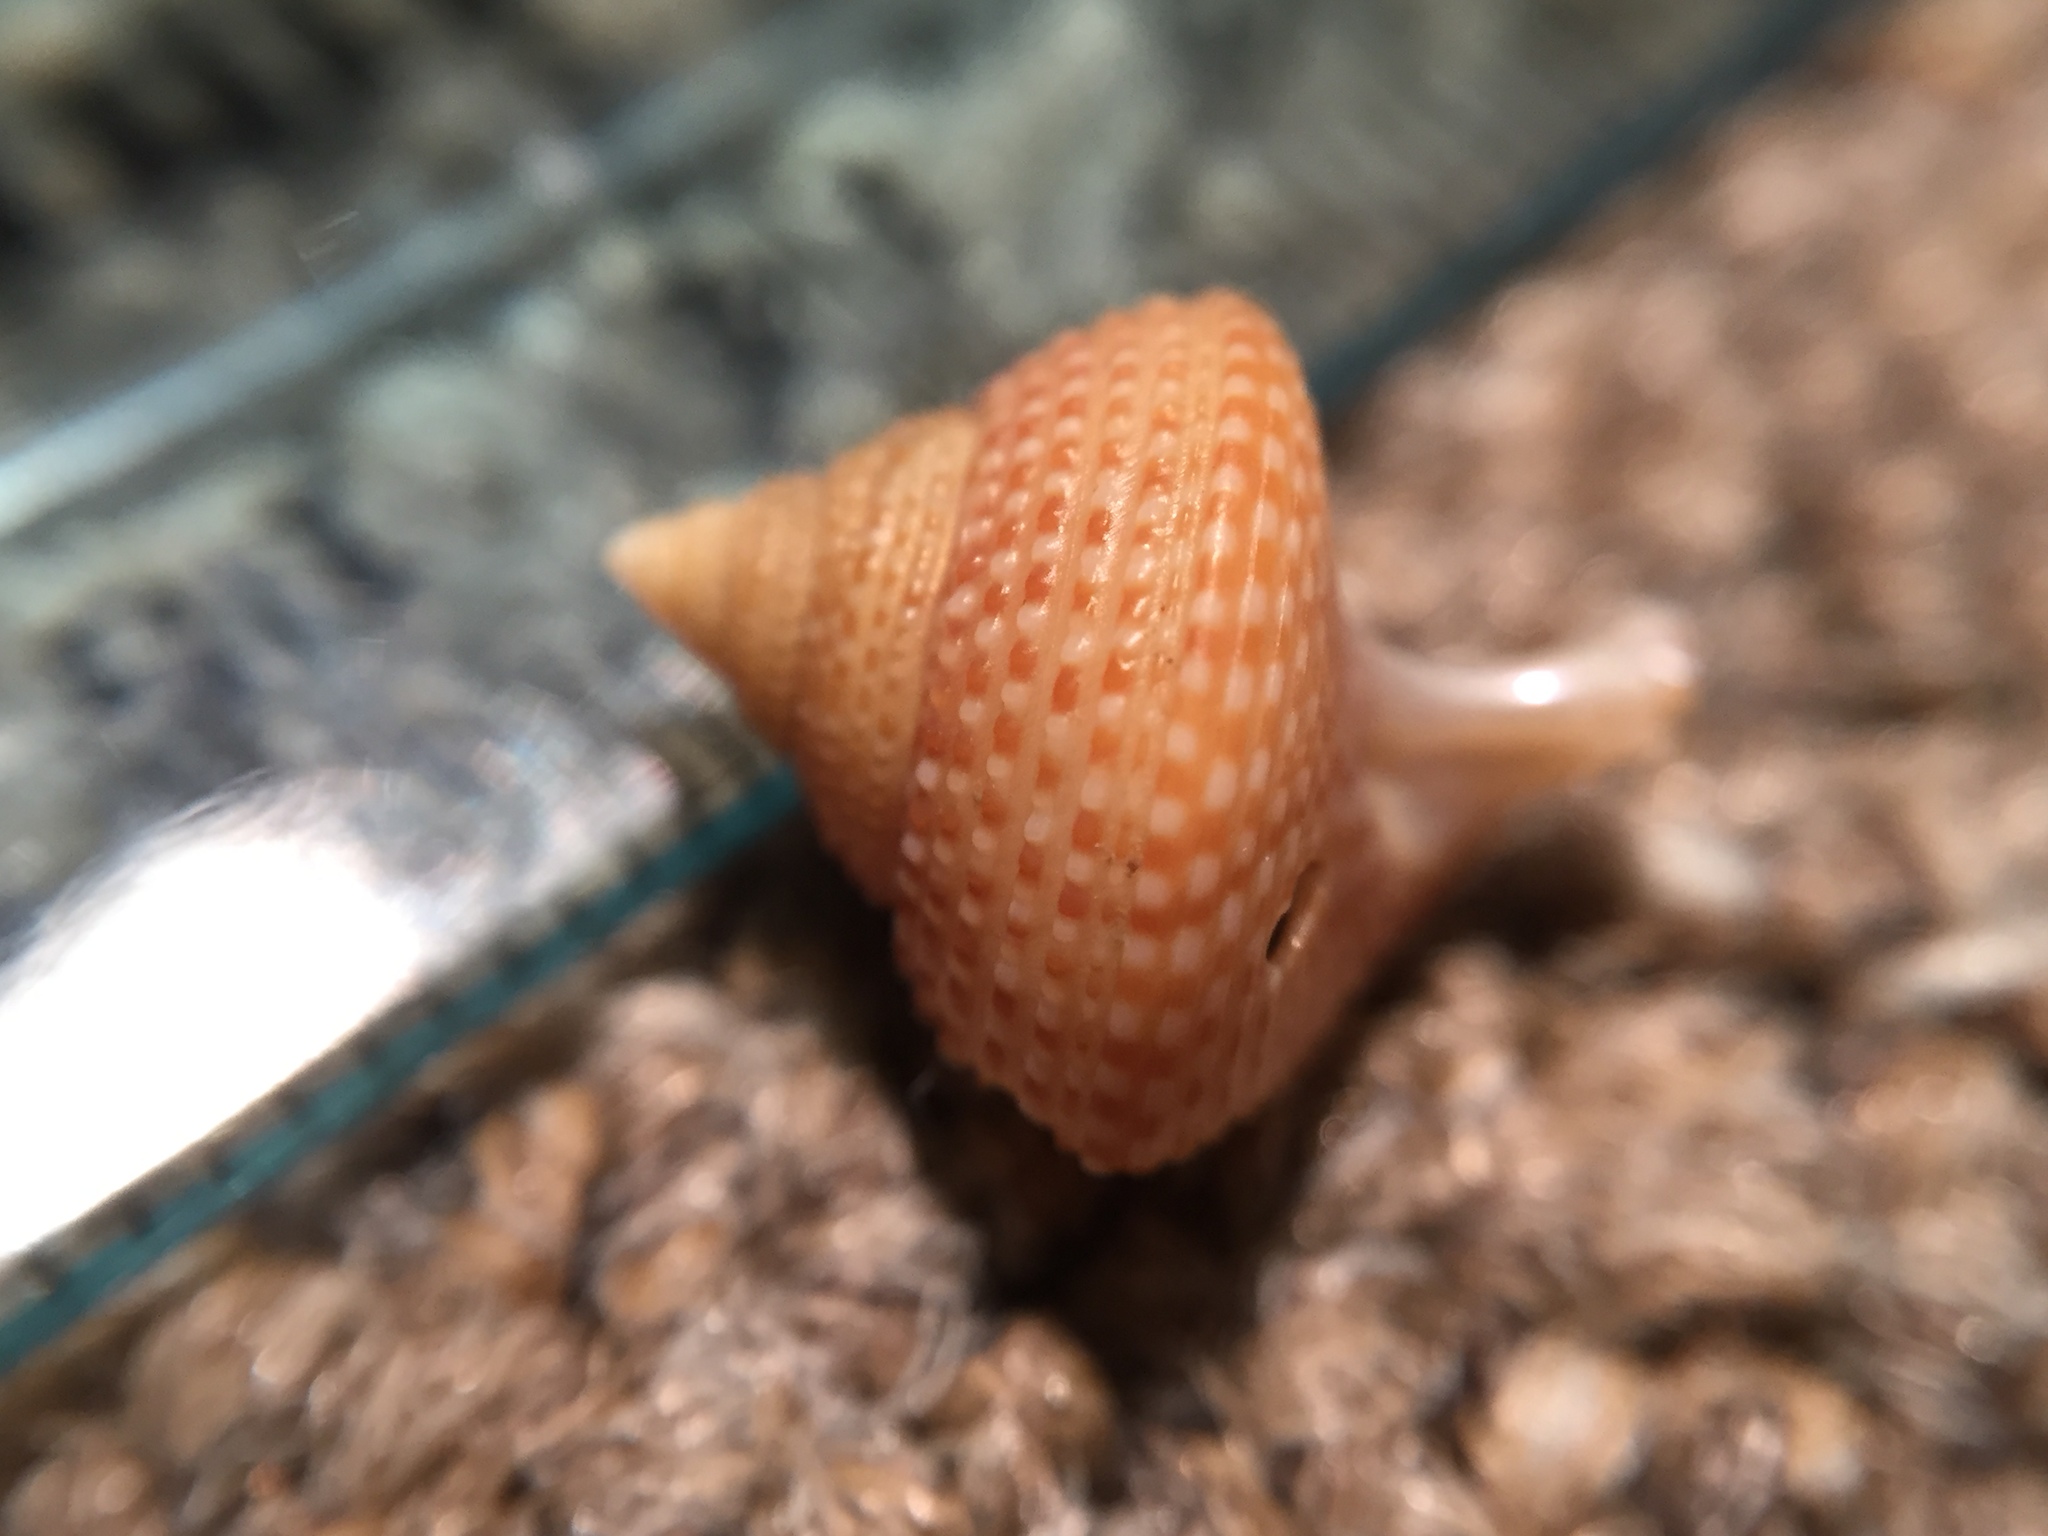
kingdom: Animalia
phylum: Mollusca
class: Gastropoda
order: Trochida
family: Calliostomatidae
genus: Maurea
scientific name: Maurea punctulata
